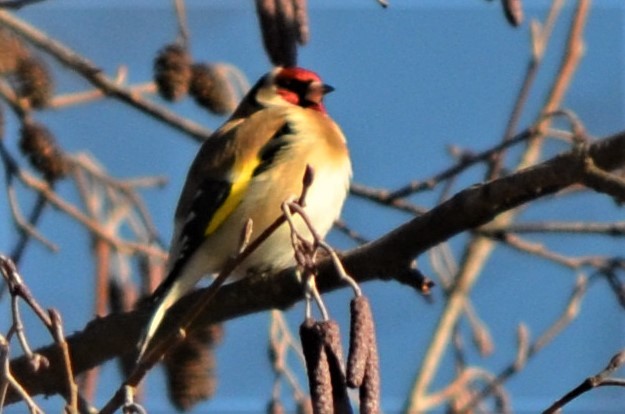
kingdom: Animalia
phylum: Chordata
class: Aves
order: Passeriformes
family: Fringillidae
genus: Carduelis
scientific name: Carduelis carduelis
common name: European goldfinch
